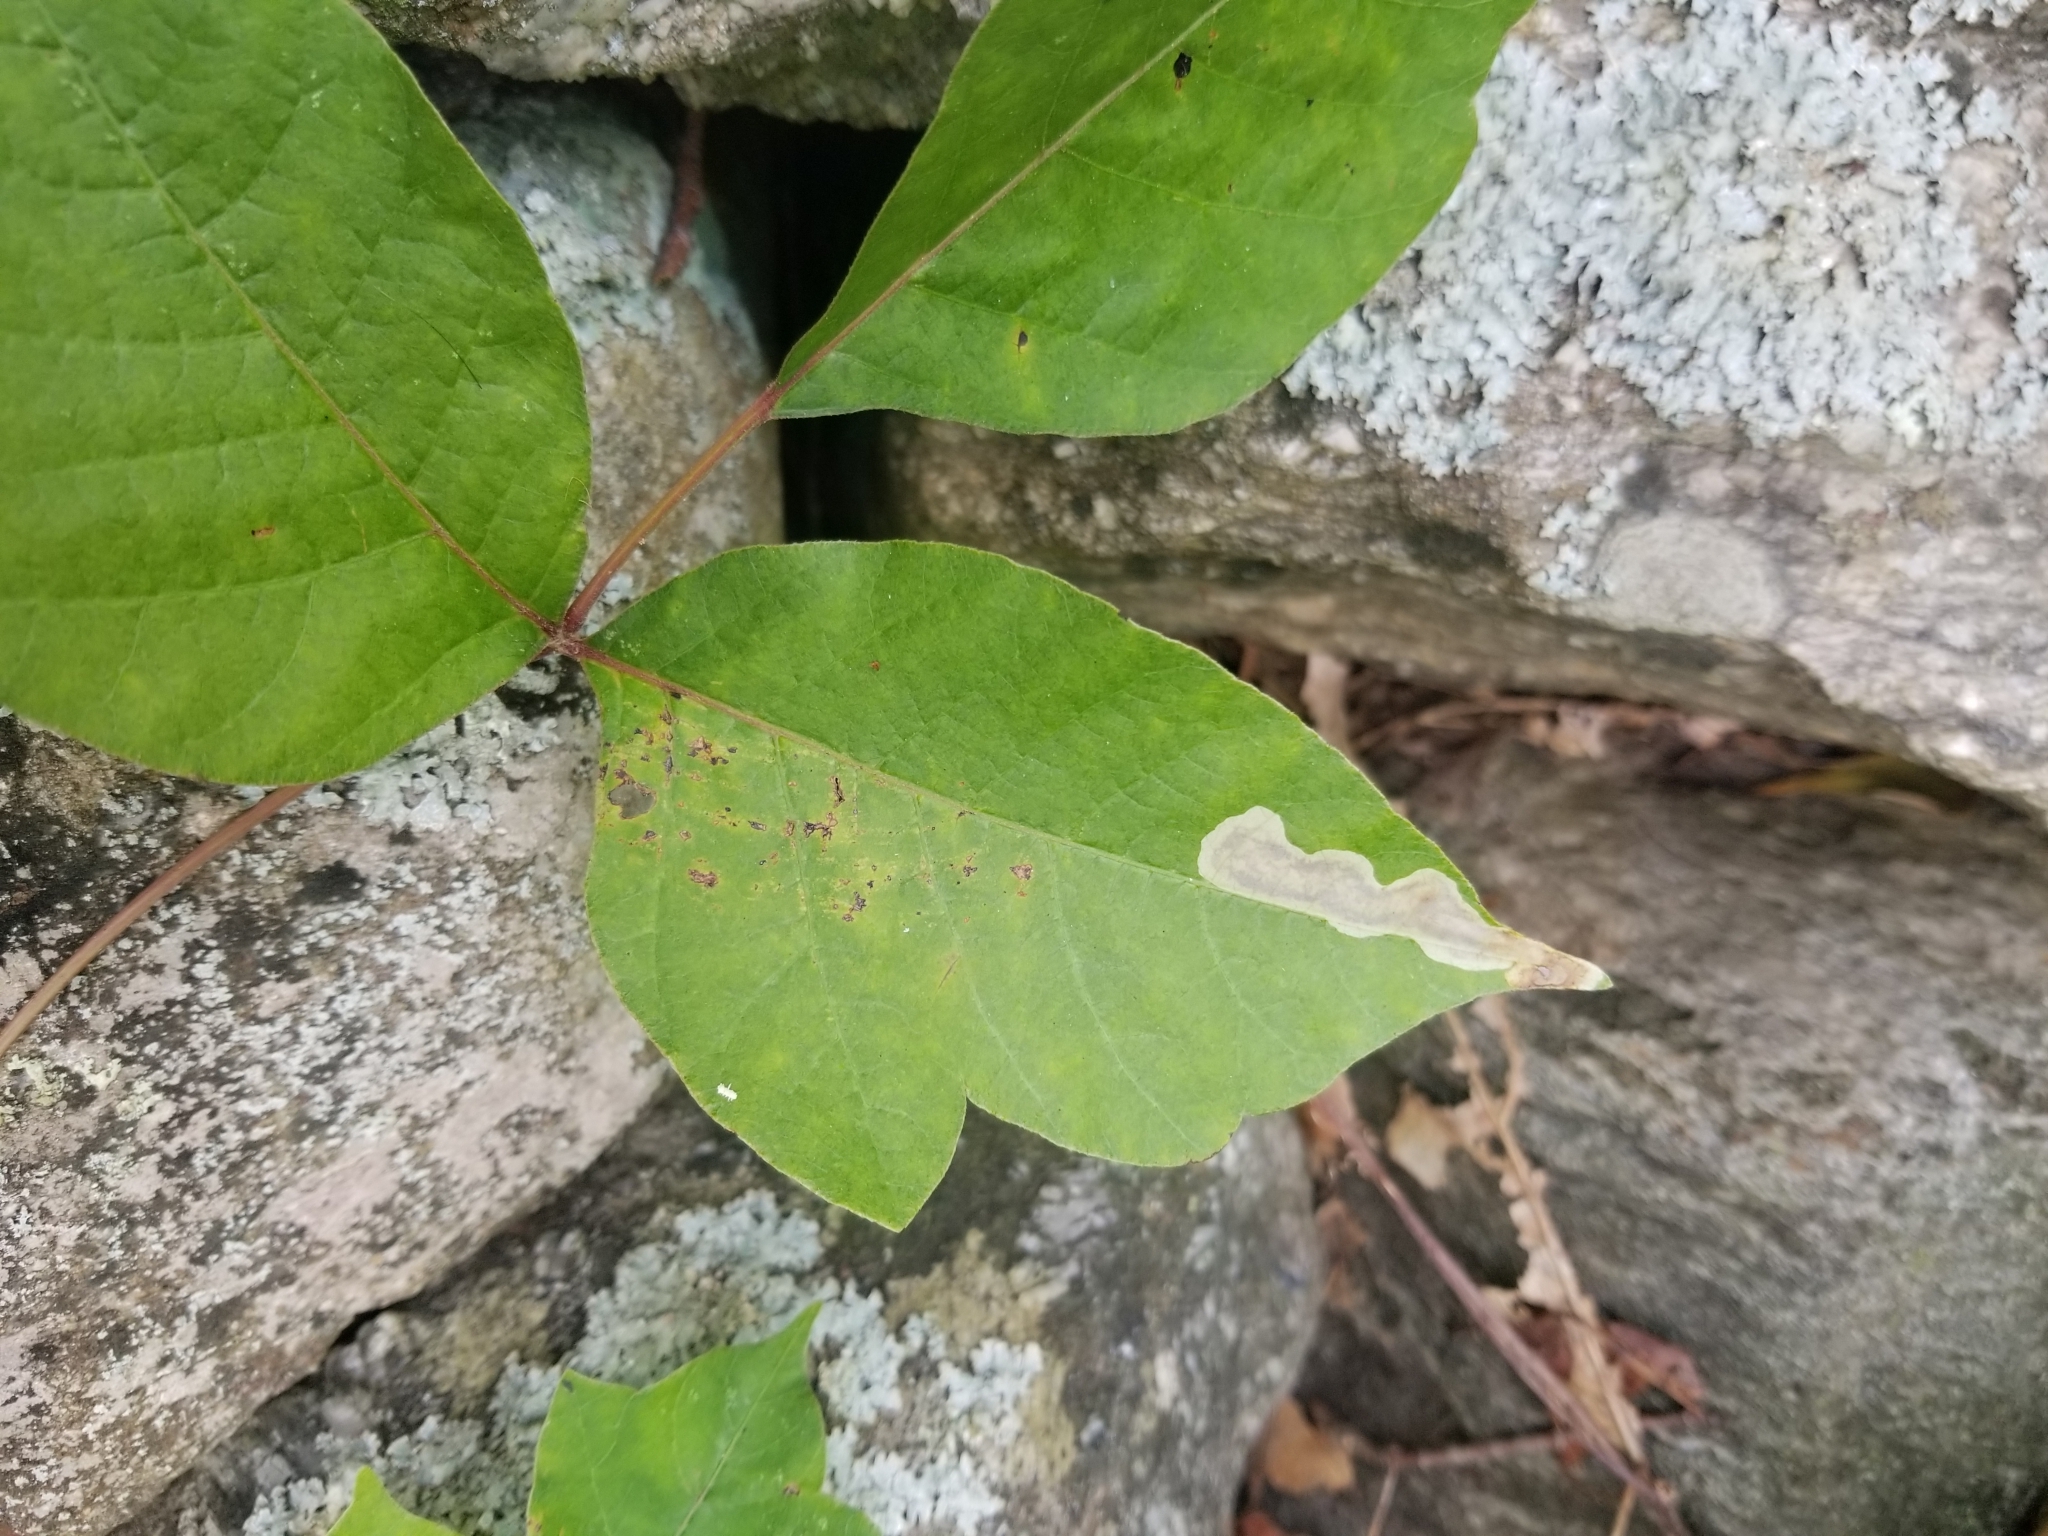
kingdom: Animalia
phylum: Arthropoda
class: Insecta
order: Lepidoptera
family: Gracillariidae
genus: Cameraria
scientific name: Cameraria guttifinitella
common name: Poison ivy leaf-miner moth
